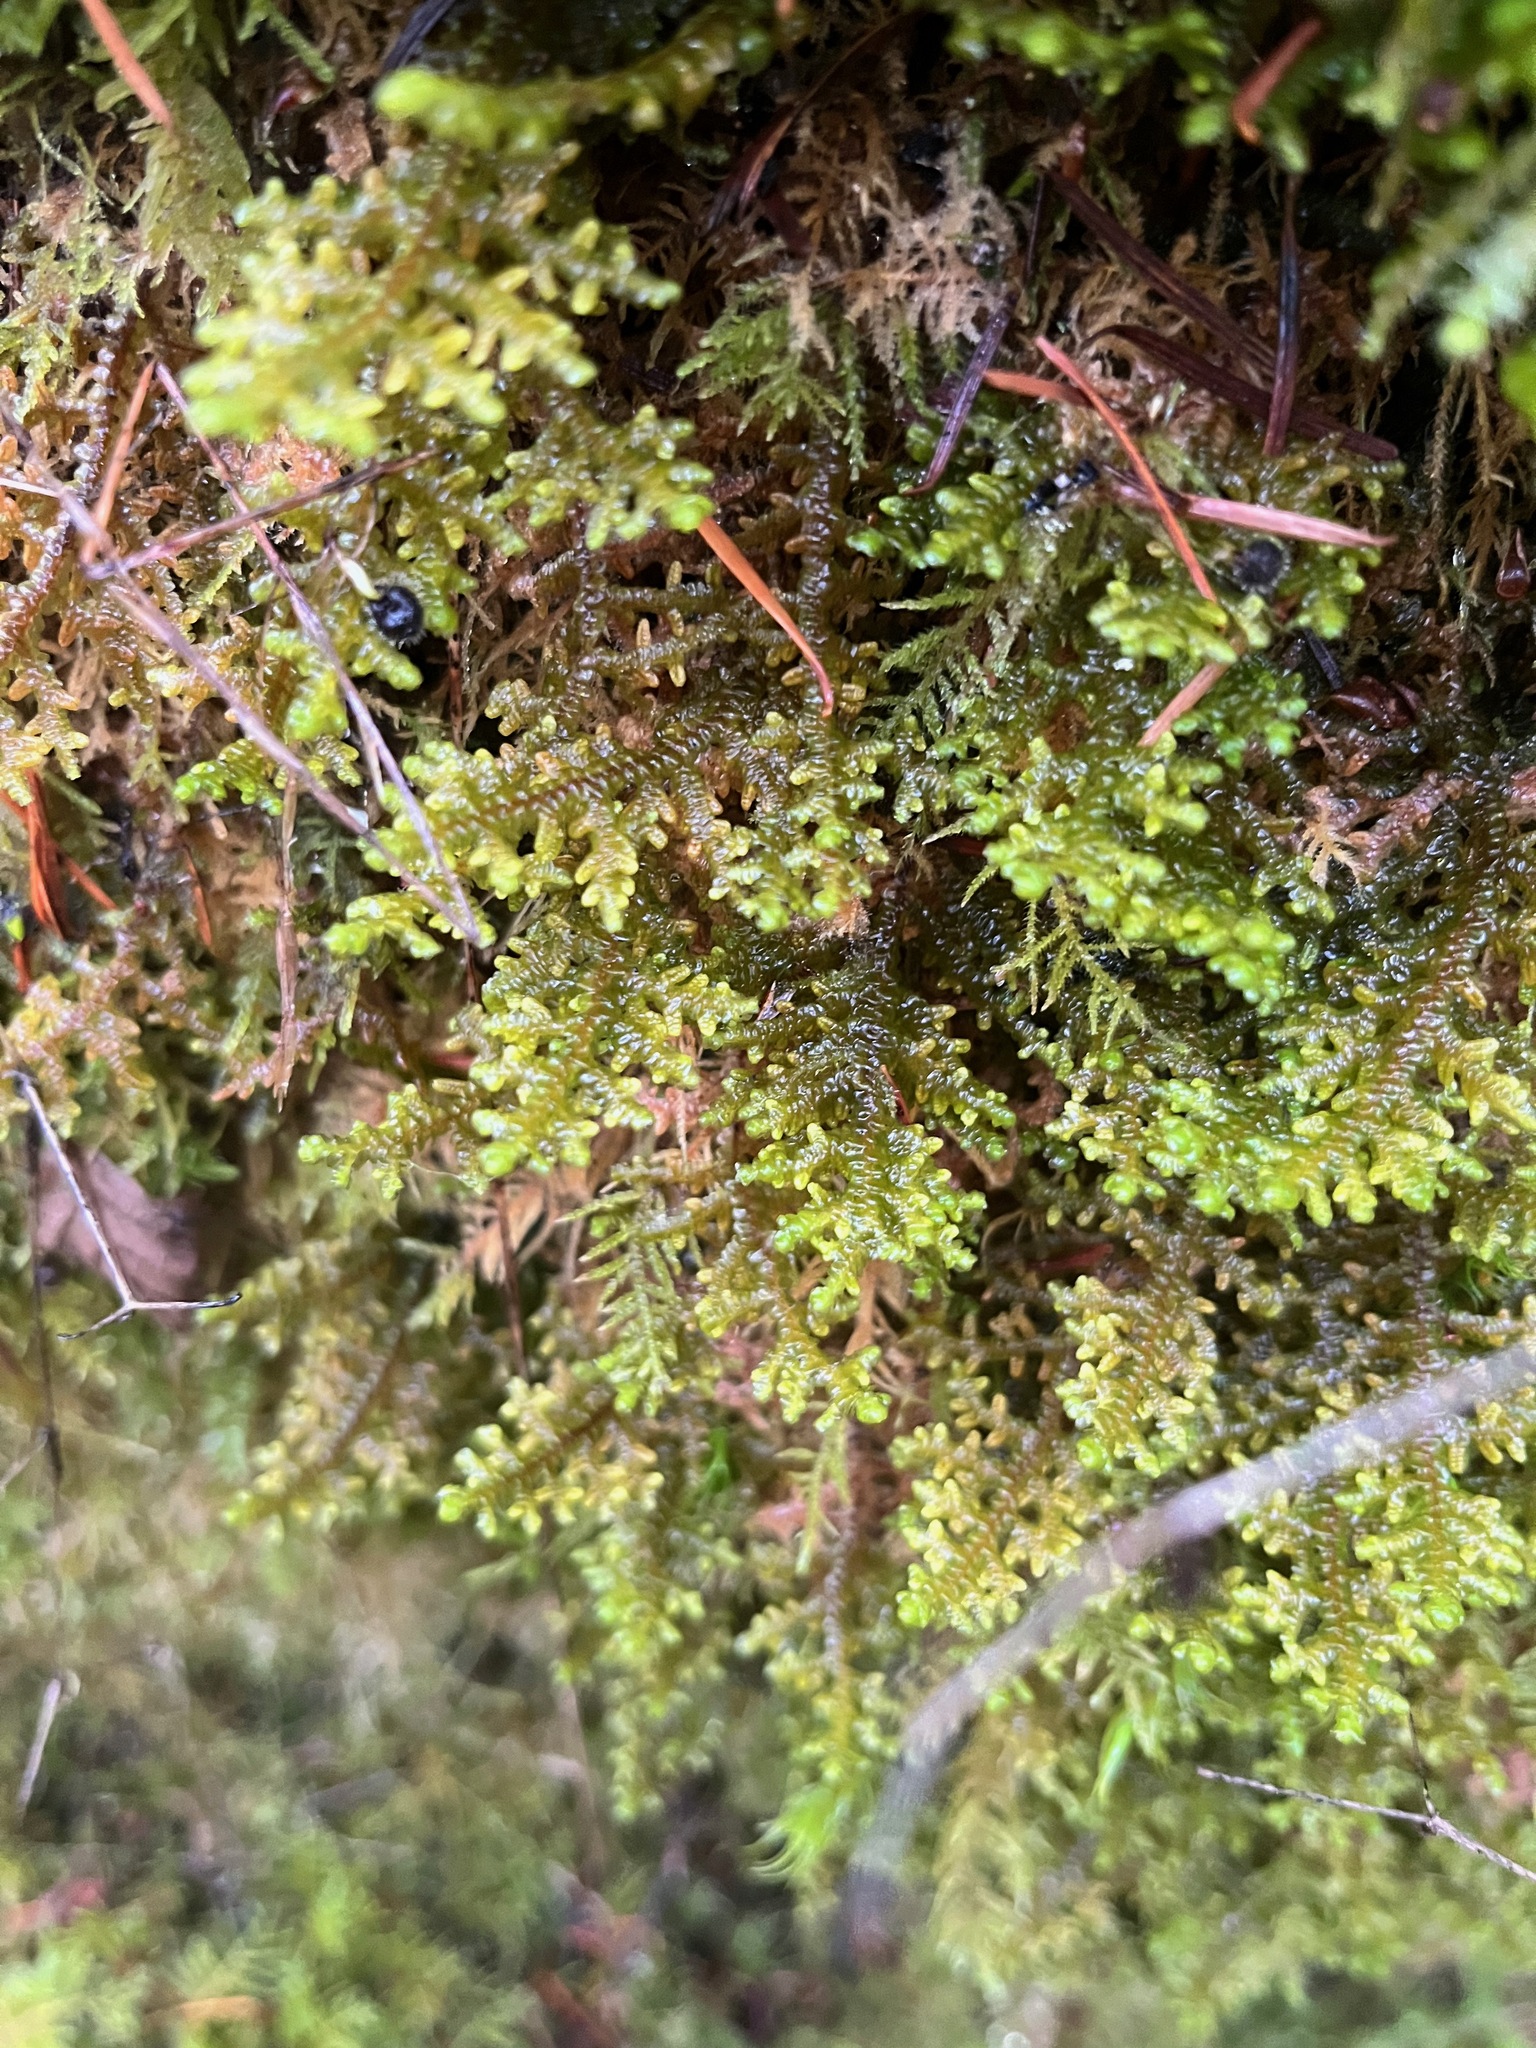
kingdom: Plantae
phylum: Marchantiophyta
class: Jungermanniopsida
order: Porellales
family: Porellaceae
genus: Porella
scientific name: Porella navicularis
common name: Tree ruffle liverwort
